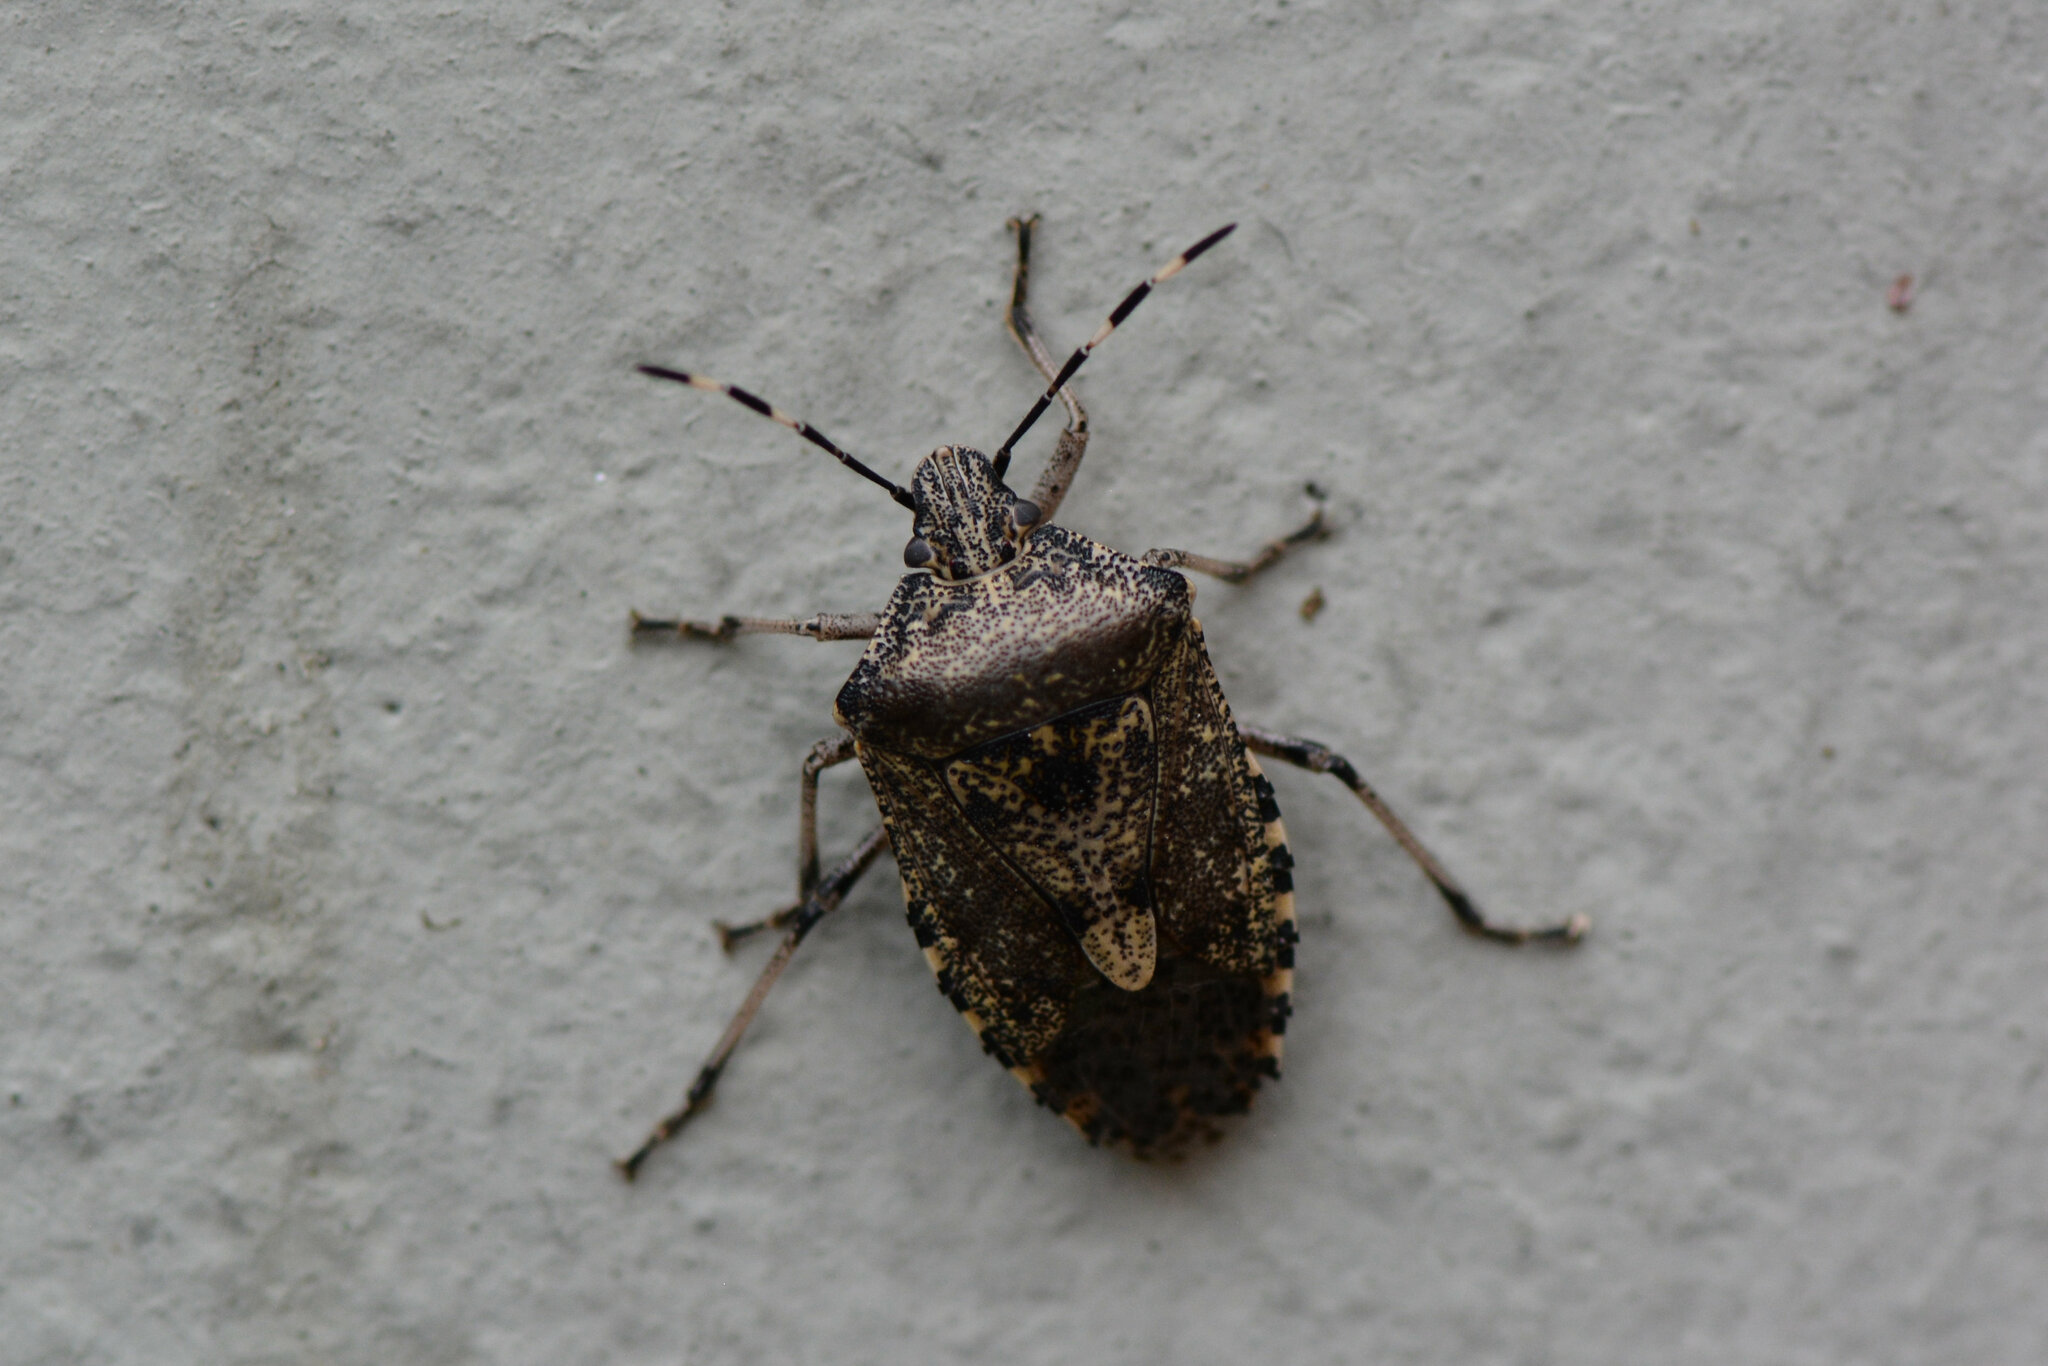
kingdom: Animalia
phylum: Arthropoda
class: Insecta
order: Hemiptera
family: Pentatomidae
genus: Rhaphigaster
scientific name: Rhaphigaster nebulosa
